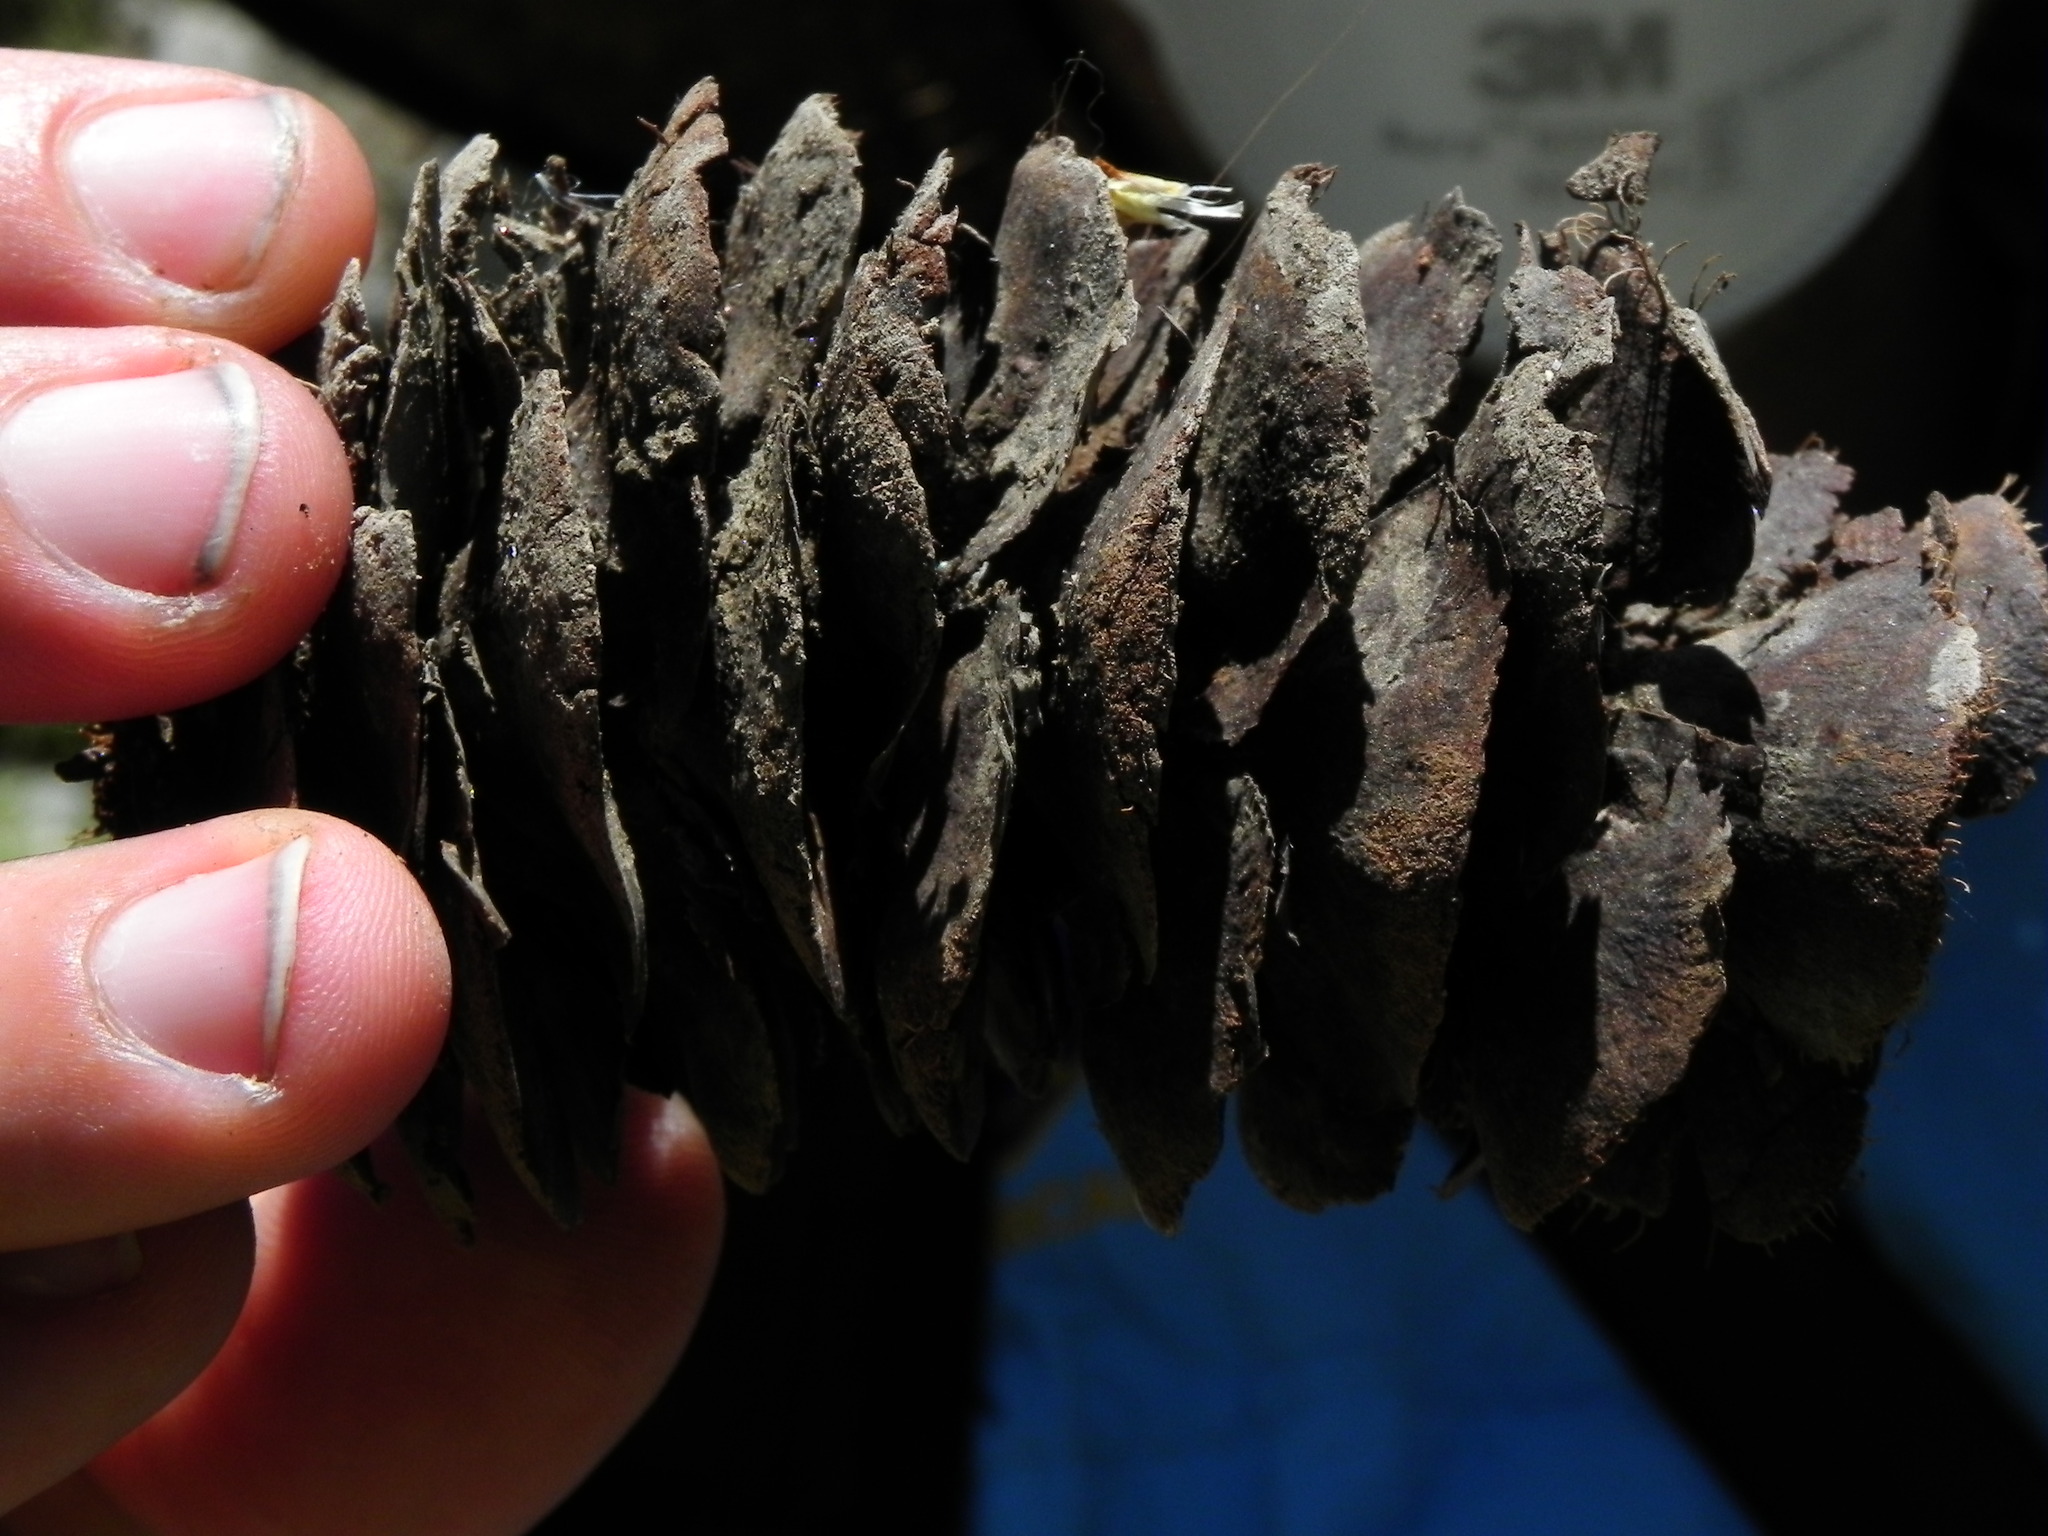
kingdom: Plantae
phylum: Tracheophyta
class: Pinopsida
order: Pinales
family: Pinaceae
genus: Pseudotsuga
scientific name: Pseudotsuga macrocarpa
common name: Big-cone douglas-fir
